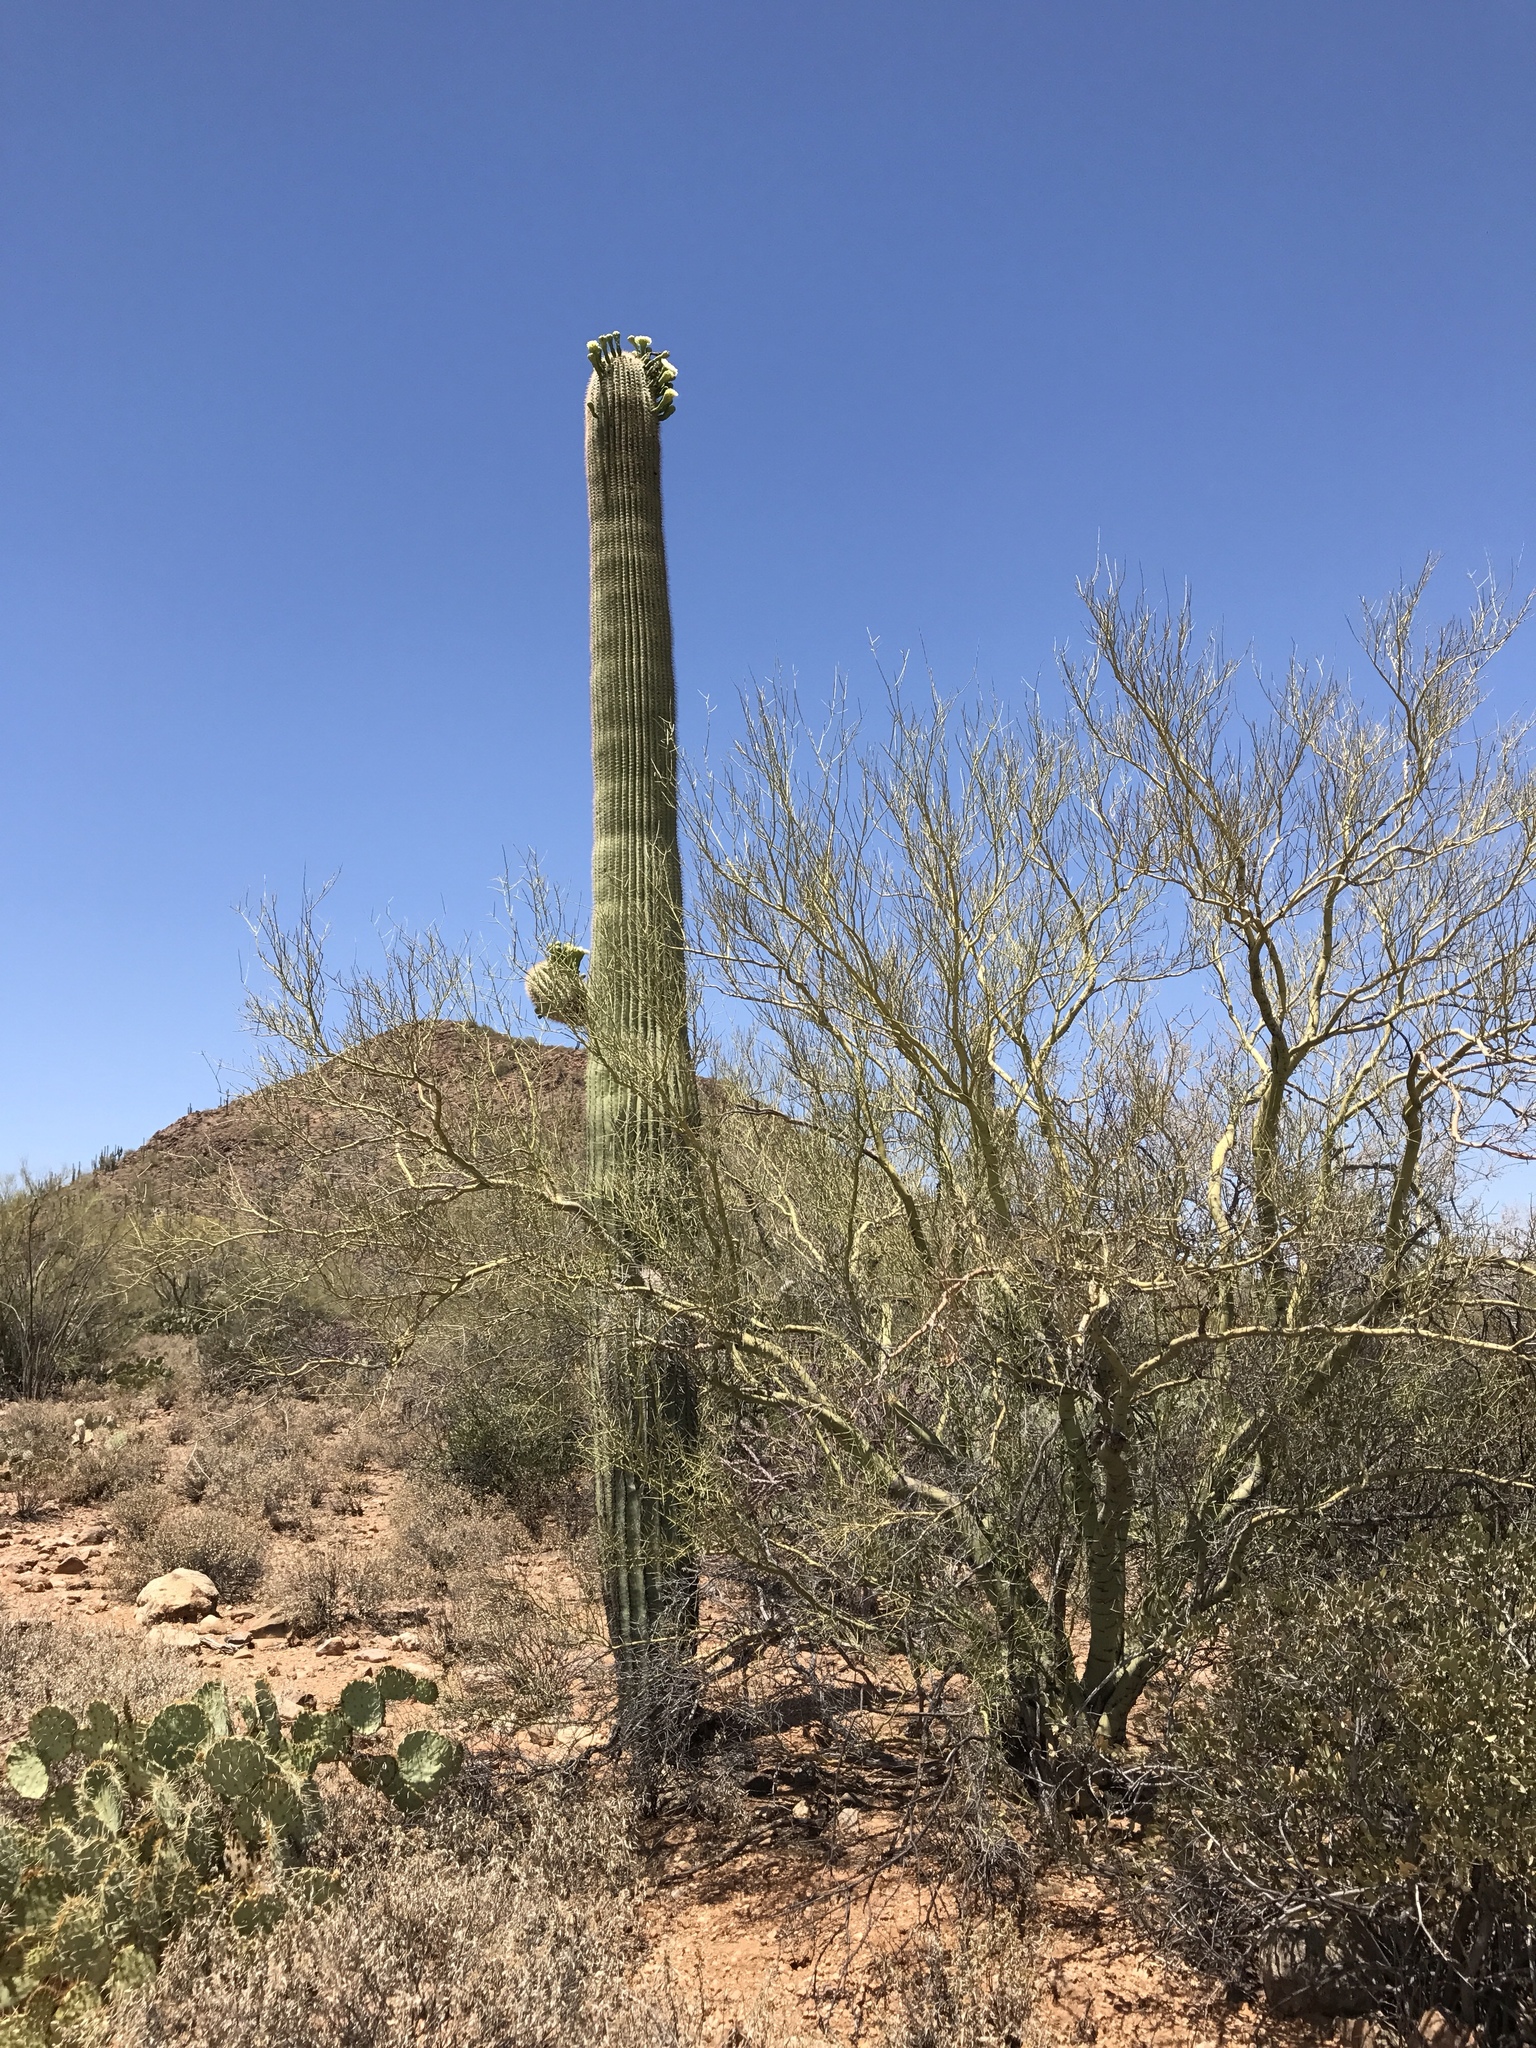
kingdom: Plantae
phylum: Tracheophyta
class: Magnoliopsida
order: Fabales
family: Fabaceae
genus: Parkinsonia
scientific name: Parkinsonia microphylla
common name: Yellow paloverde
